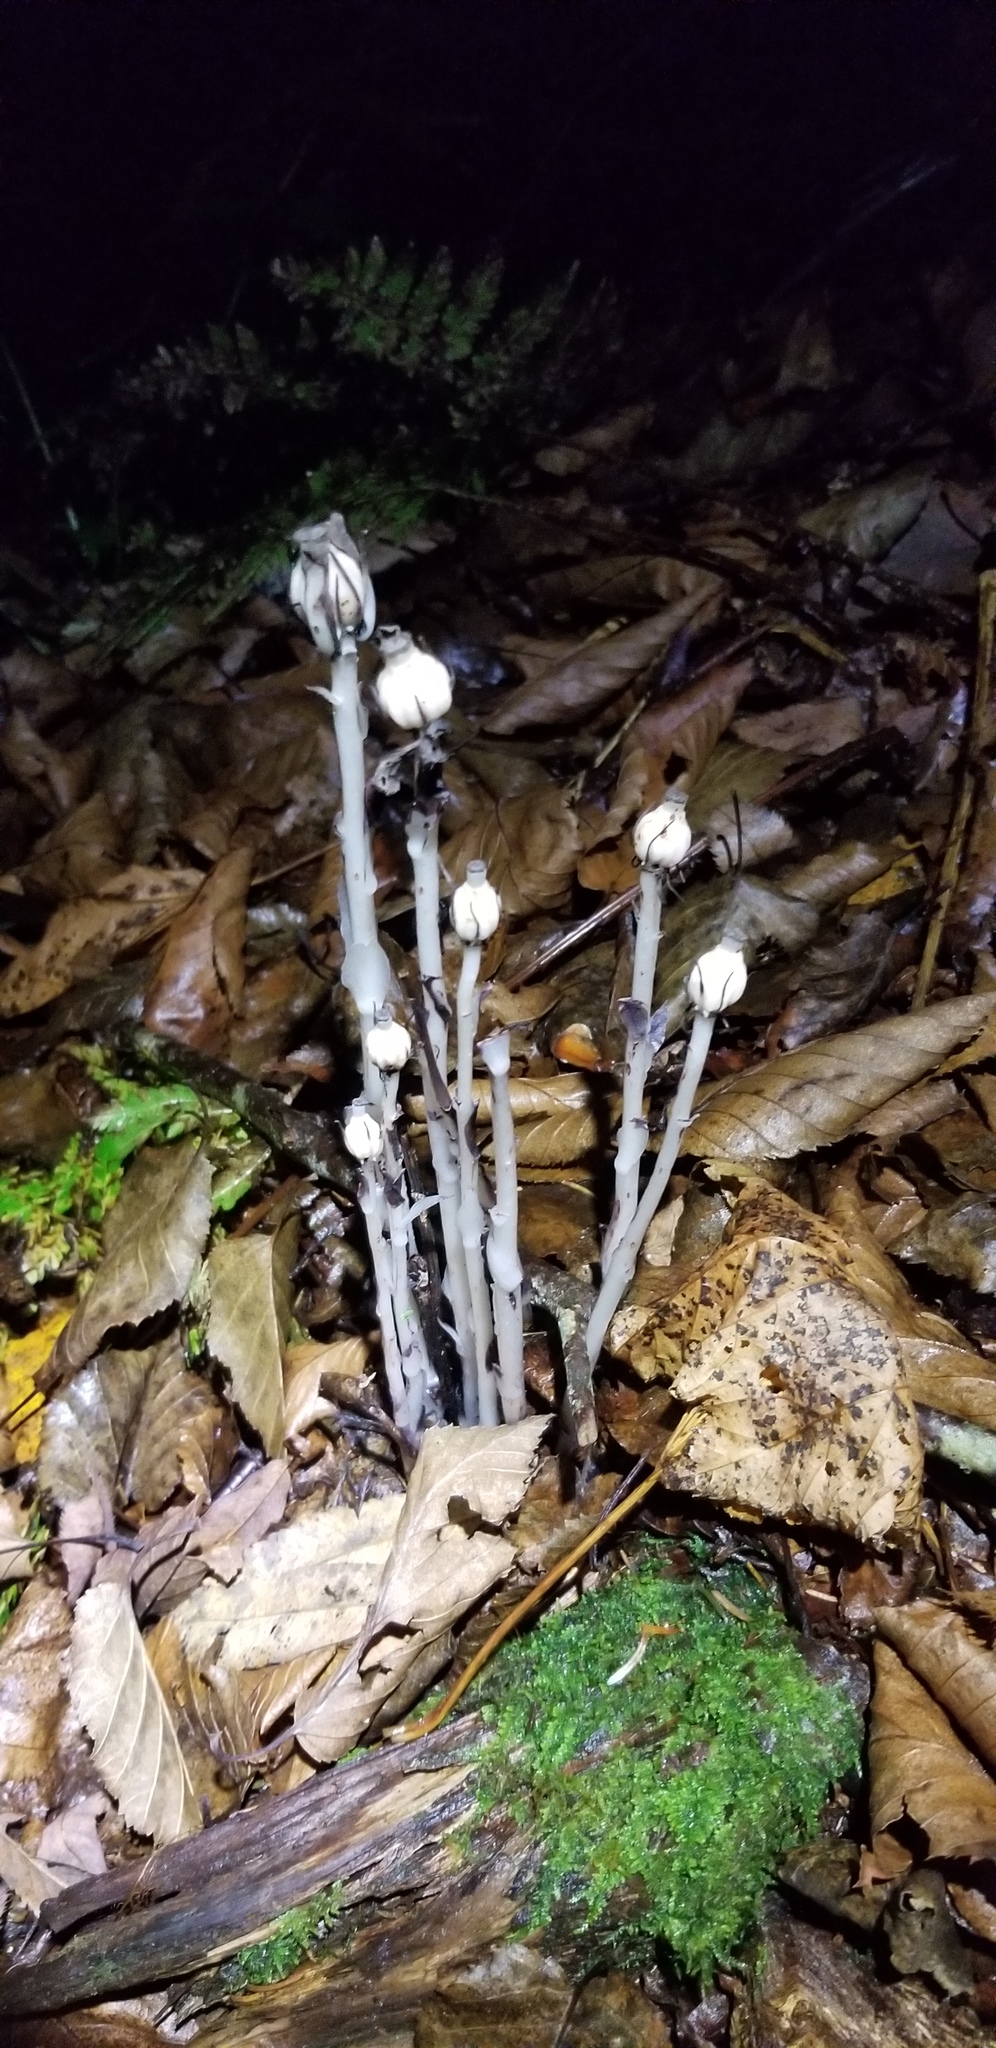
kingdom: Plantae
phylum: Tracheophyta
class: Magnoliopsida
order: Ericales
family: Ericaceae
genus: Monotropa
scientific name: Monotropa uniflora
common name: Convulsion root
